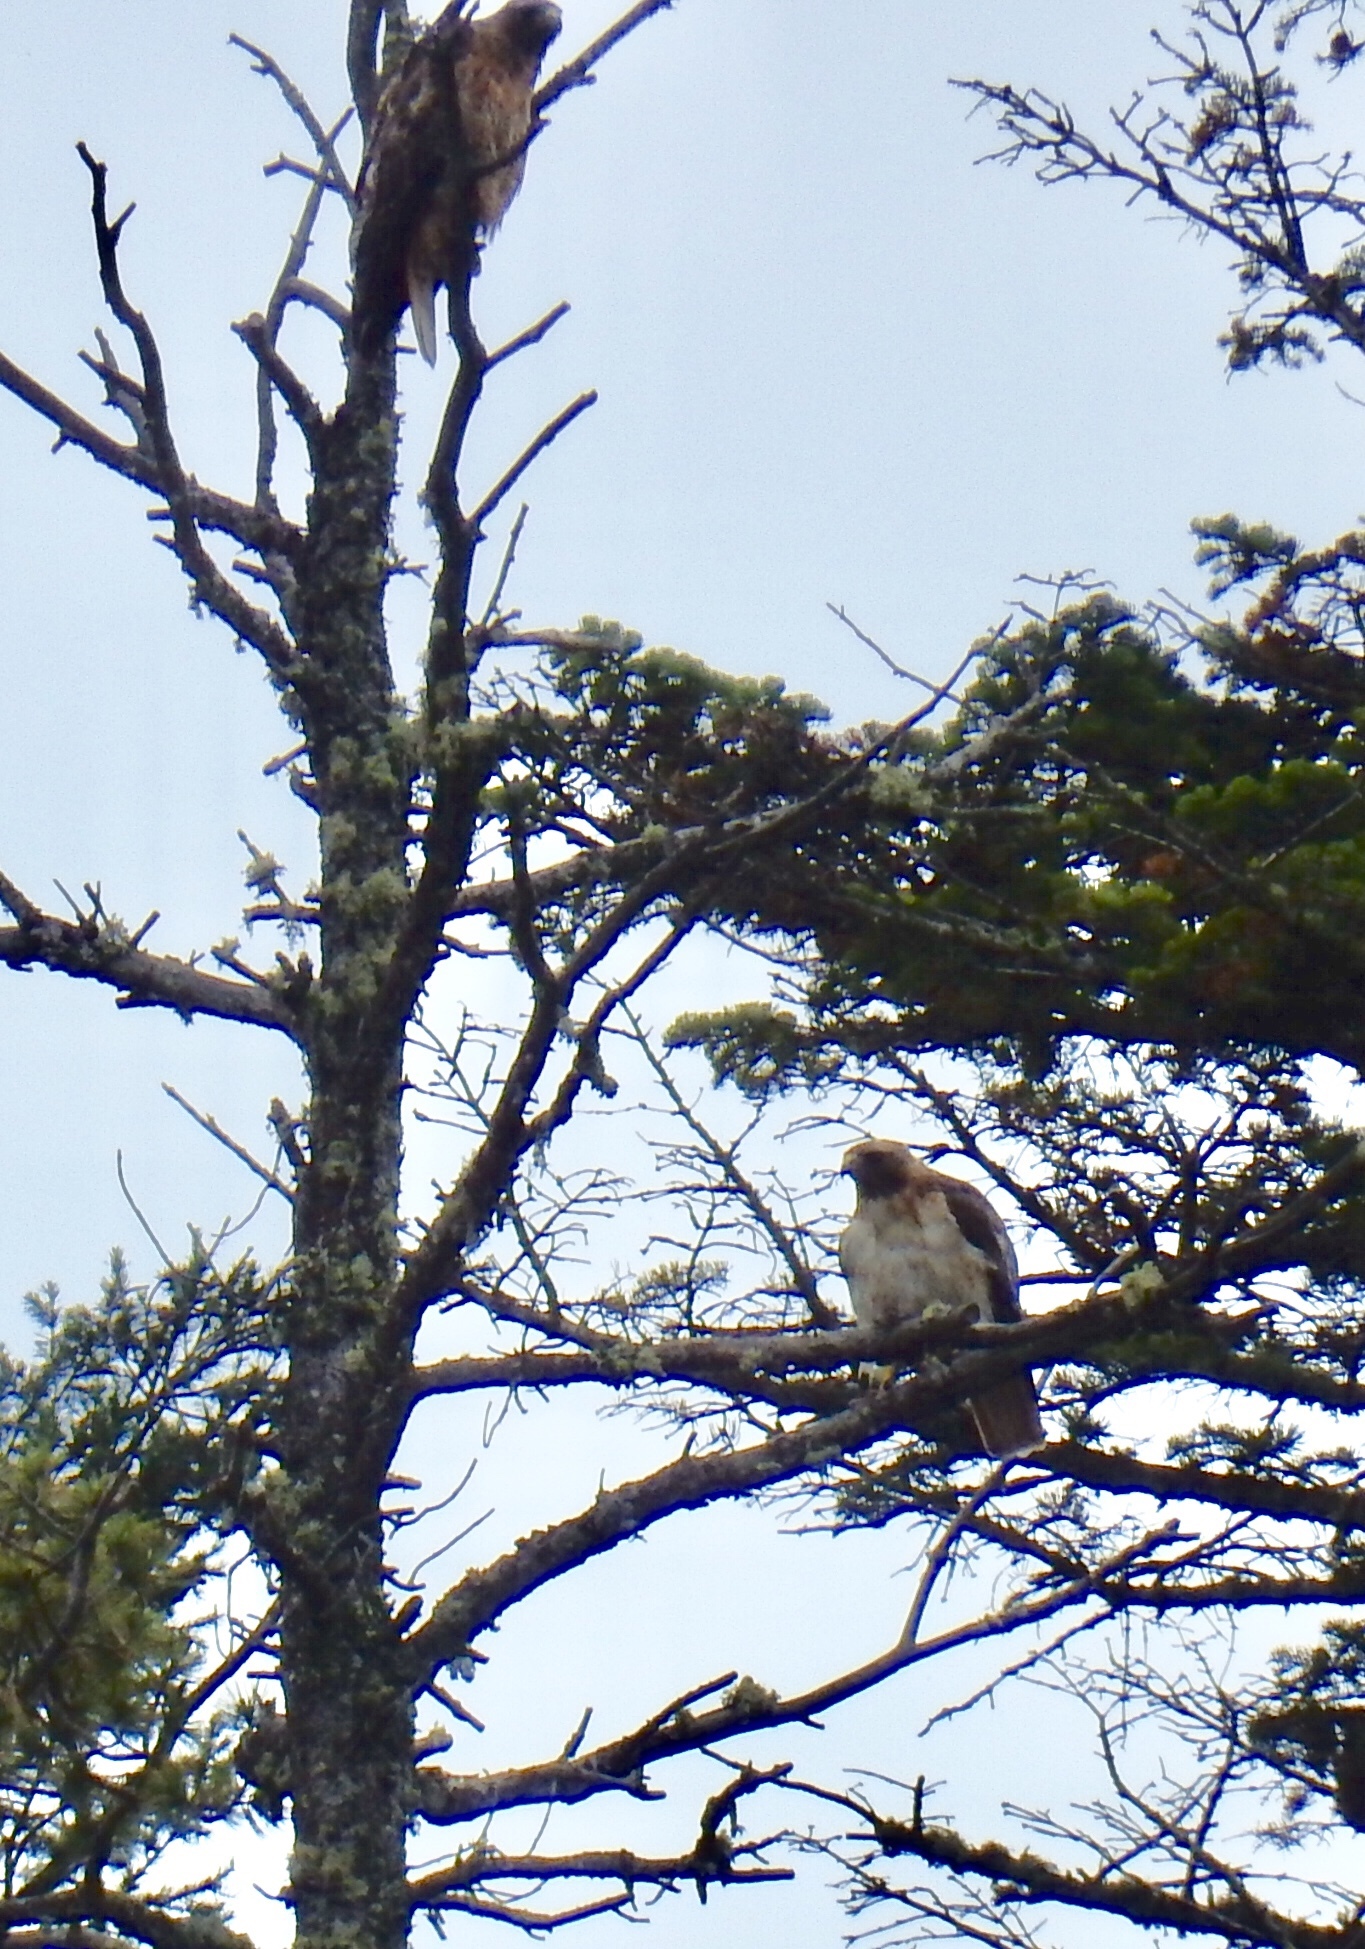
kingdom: Animalia
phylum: Chordata
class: Aves
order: Accipitriformes
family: Accipitridae
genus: Buteo
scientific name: Buteo jamaicensis
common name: Red-tailed hawk
